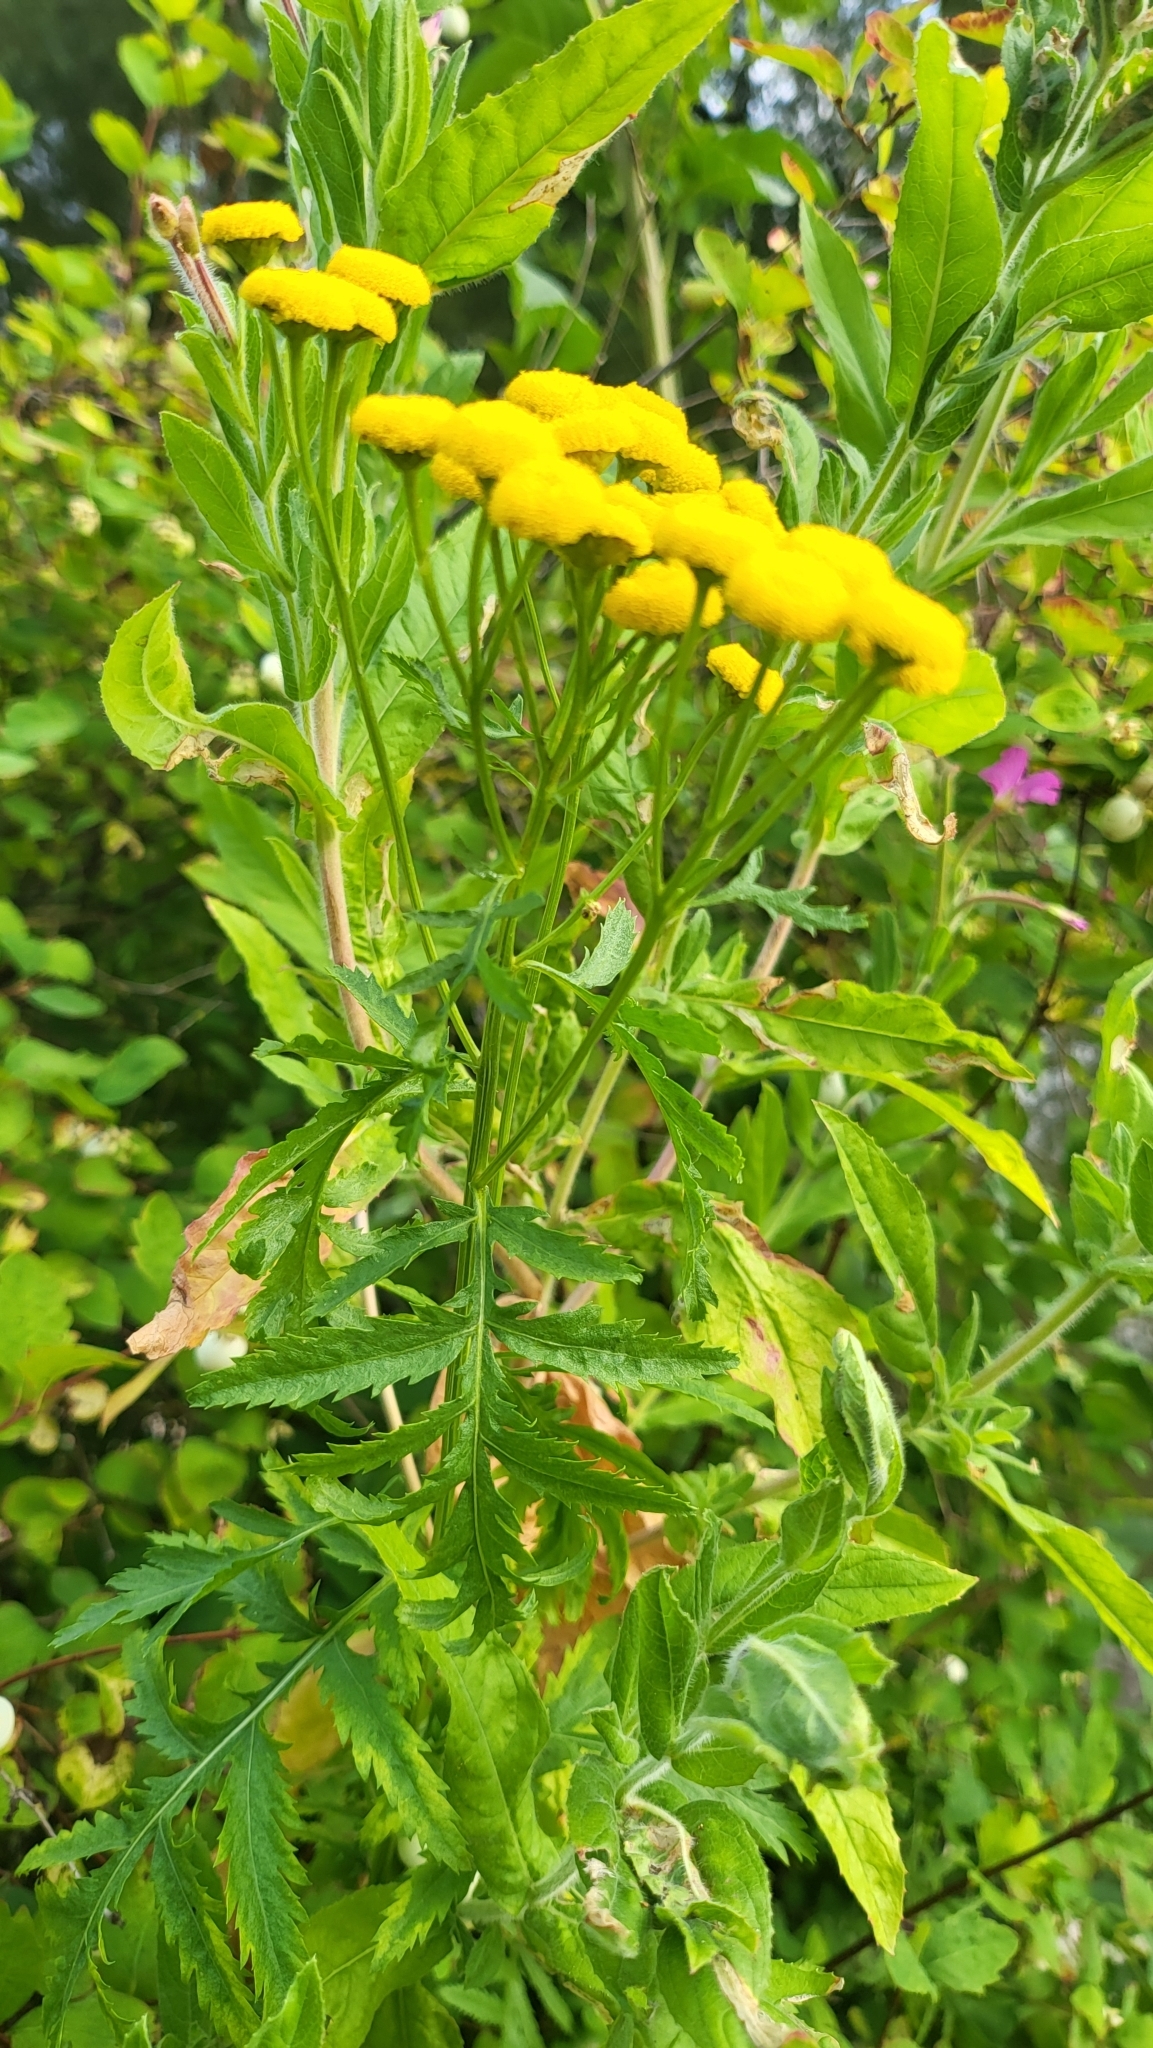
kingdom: Plantae
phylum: Tracheophyta
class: Magnoliopsida
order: Asterales
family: Asteraceae
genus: Tanacetum
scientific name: Tanacetum vulgare
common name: Common tansy
